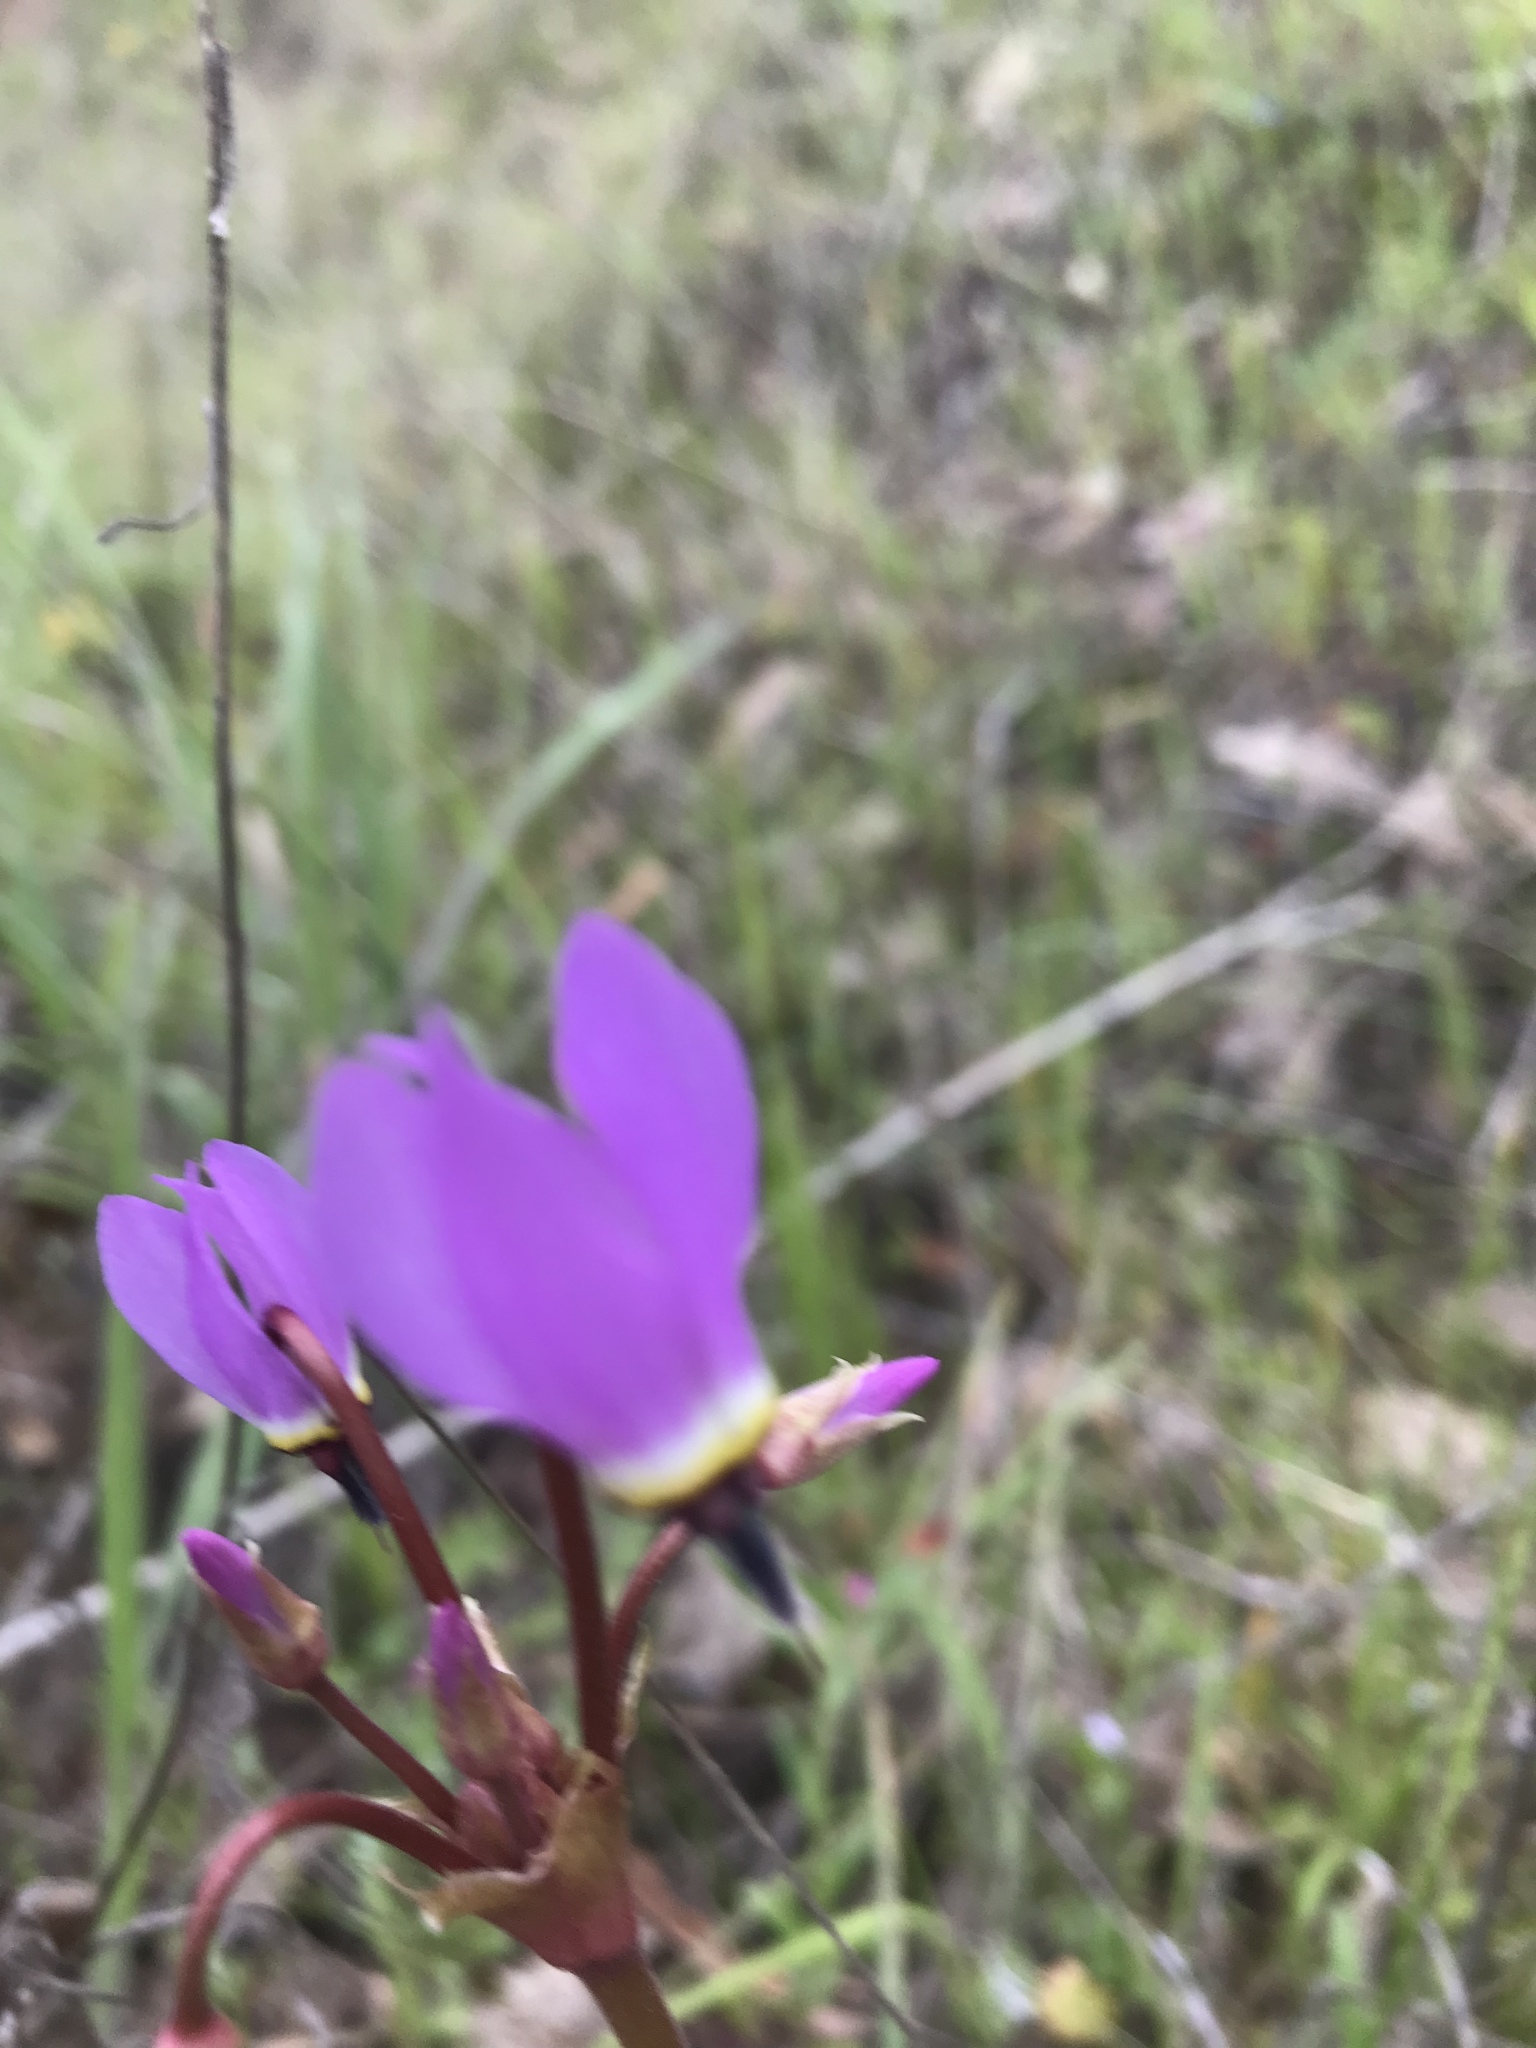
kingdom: Plantae
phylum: Tracheophyta
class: Magnoliopsida
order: Ericales
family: Primulaceae
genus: Dodecatheon
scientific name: Dodecatheon hendersonii
